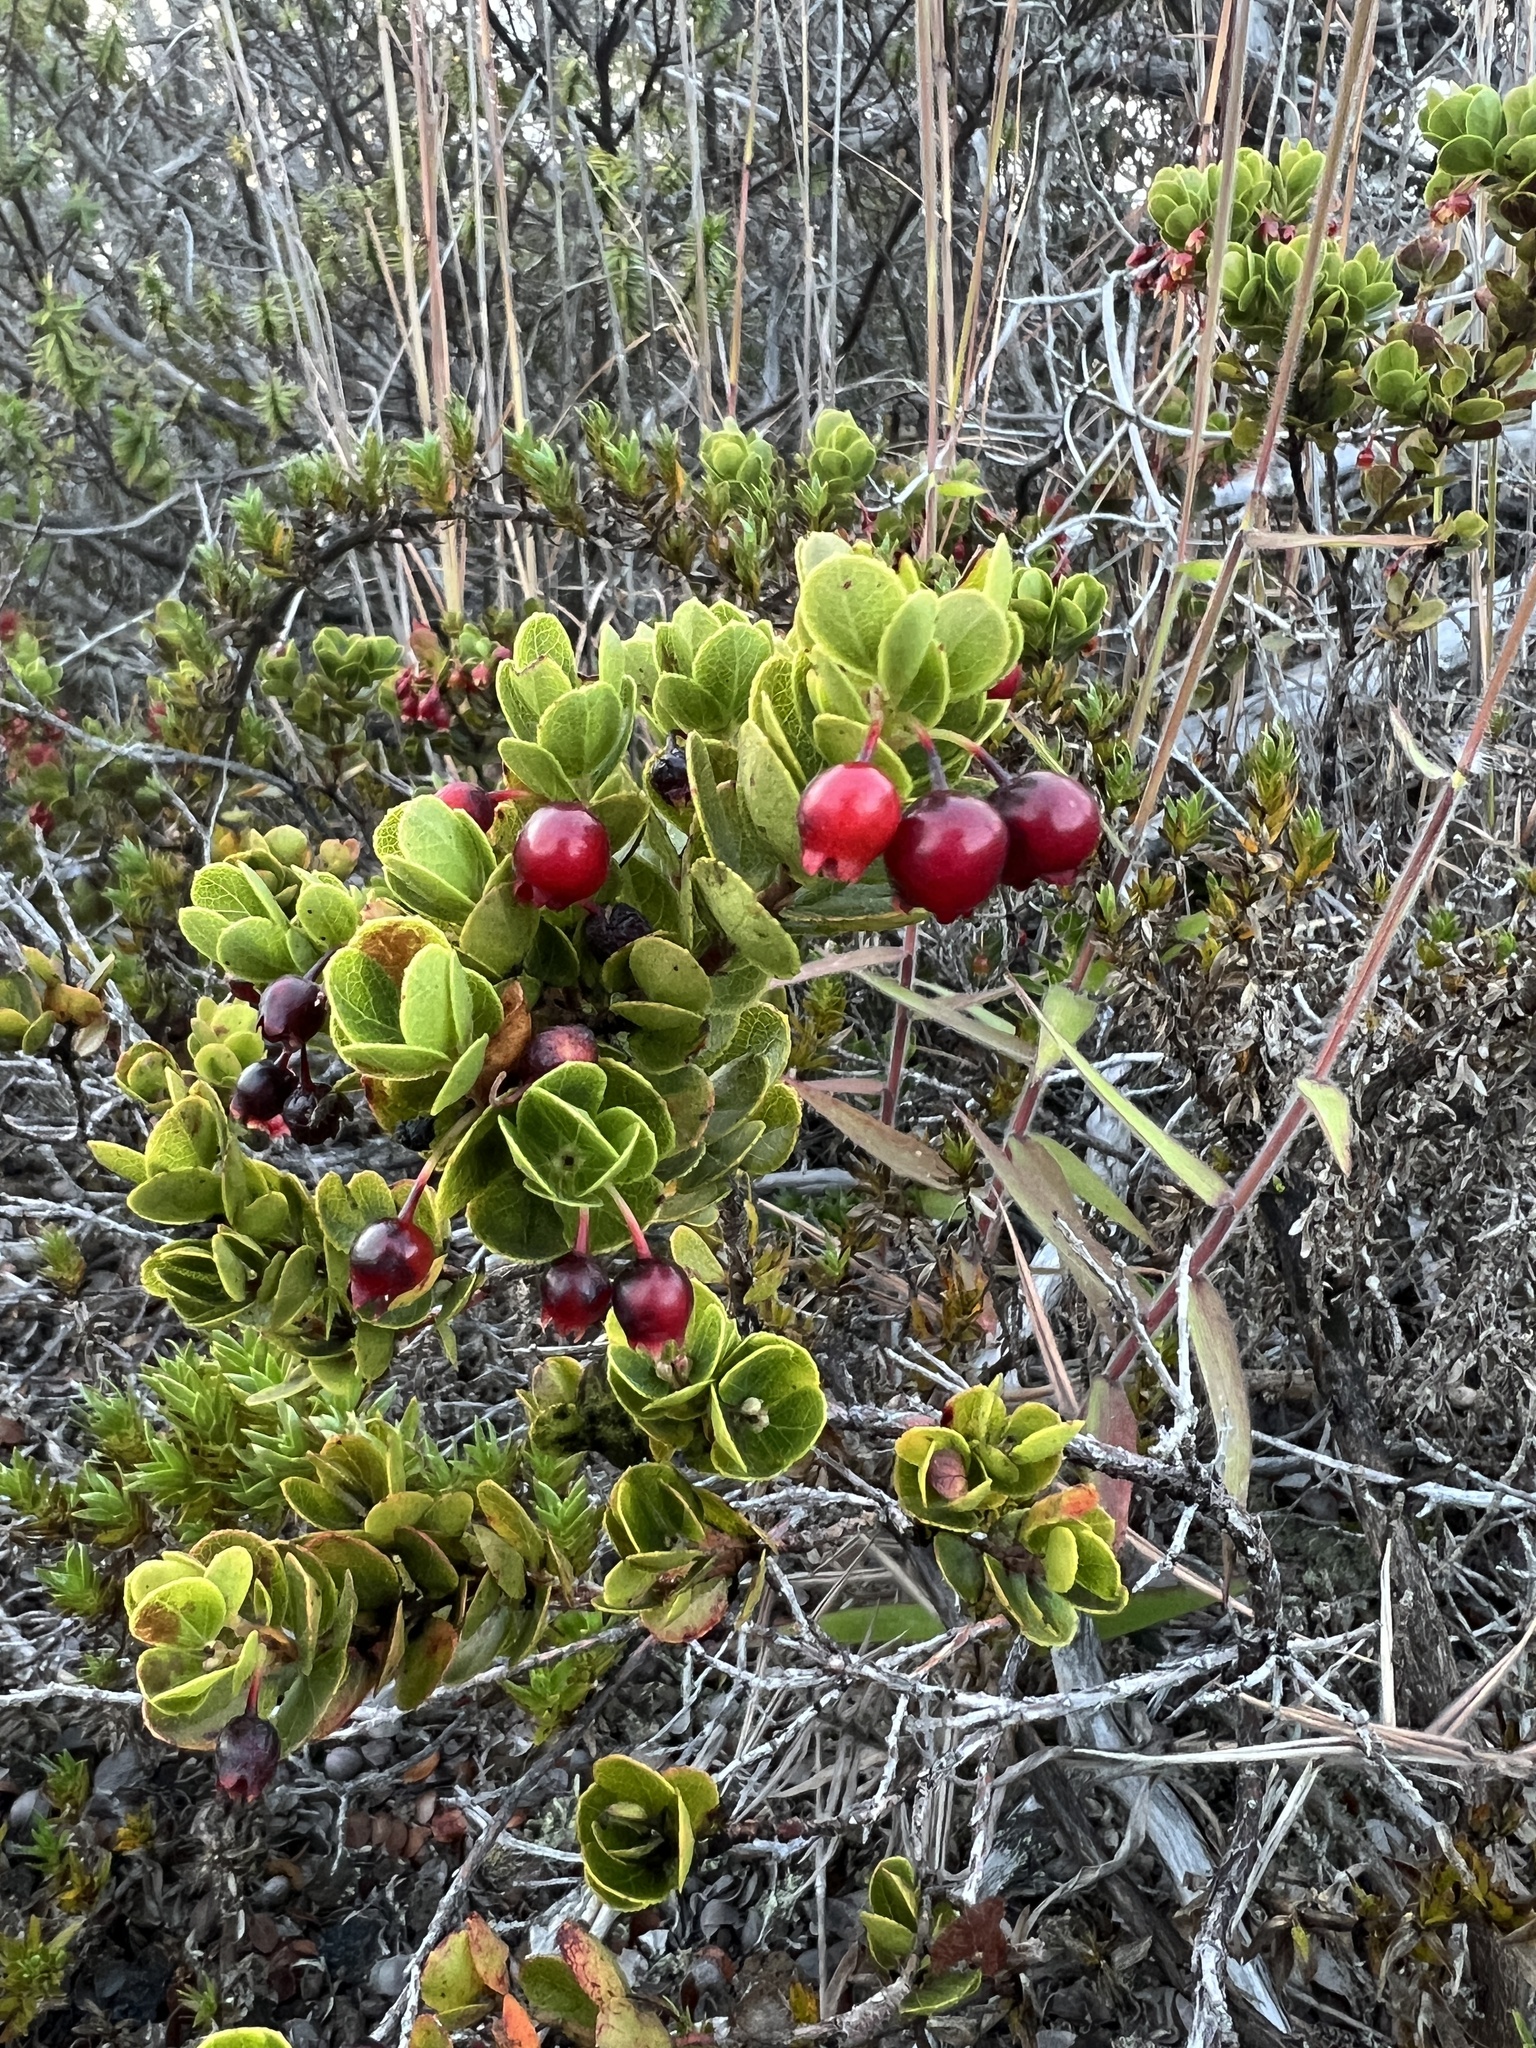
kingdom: Plantae
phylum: Tracheophyta
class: Magnoliopsida
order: Ericales
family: Ericaceae
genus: Vaccinium
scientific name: Vaccinium reticulatum
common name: Ohelo
